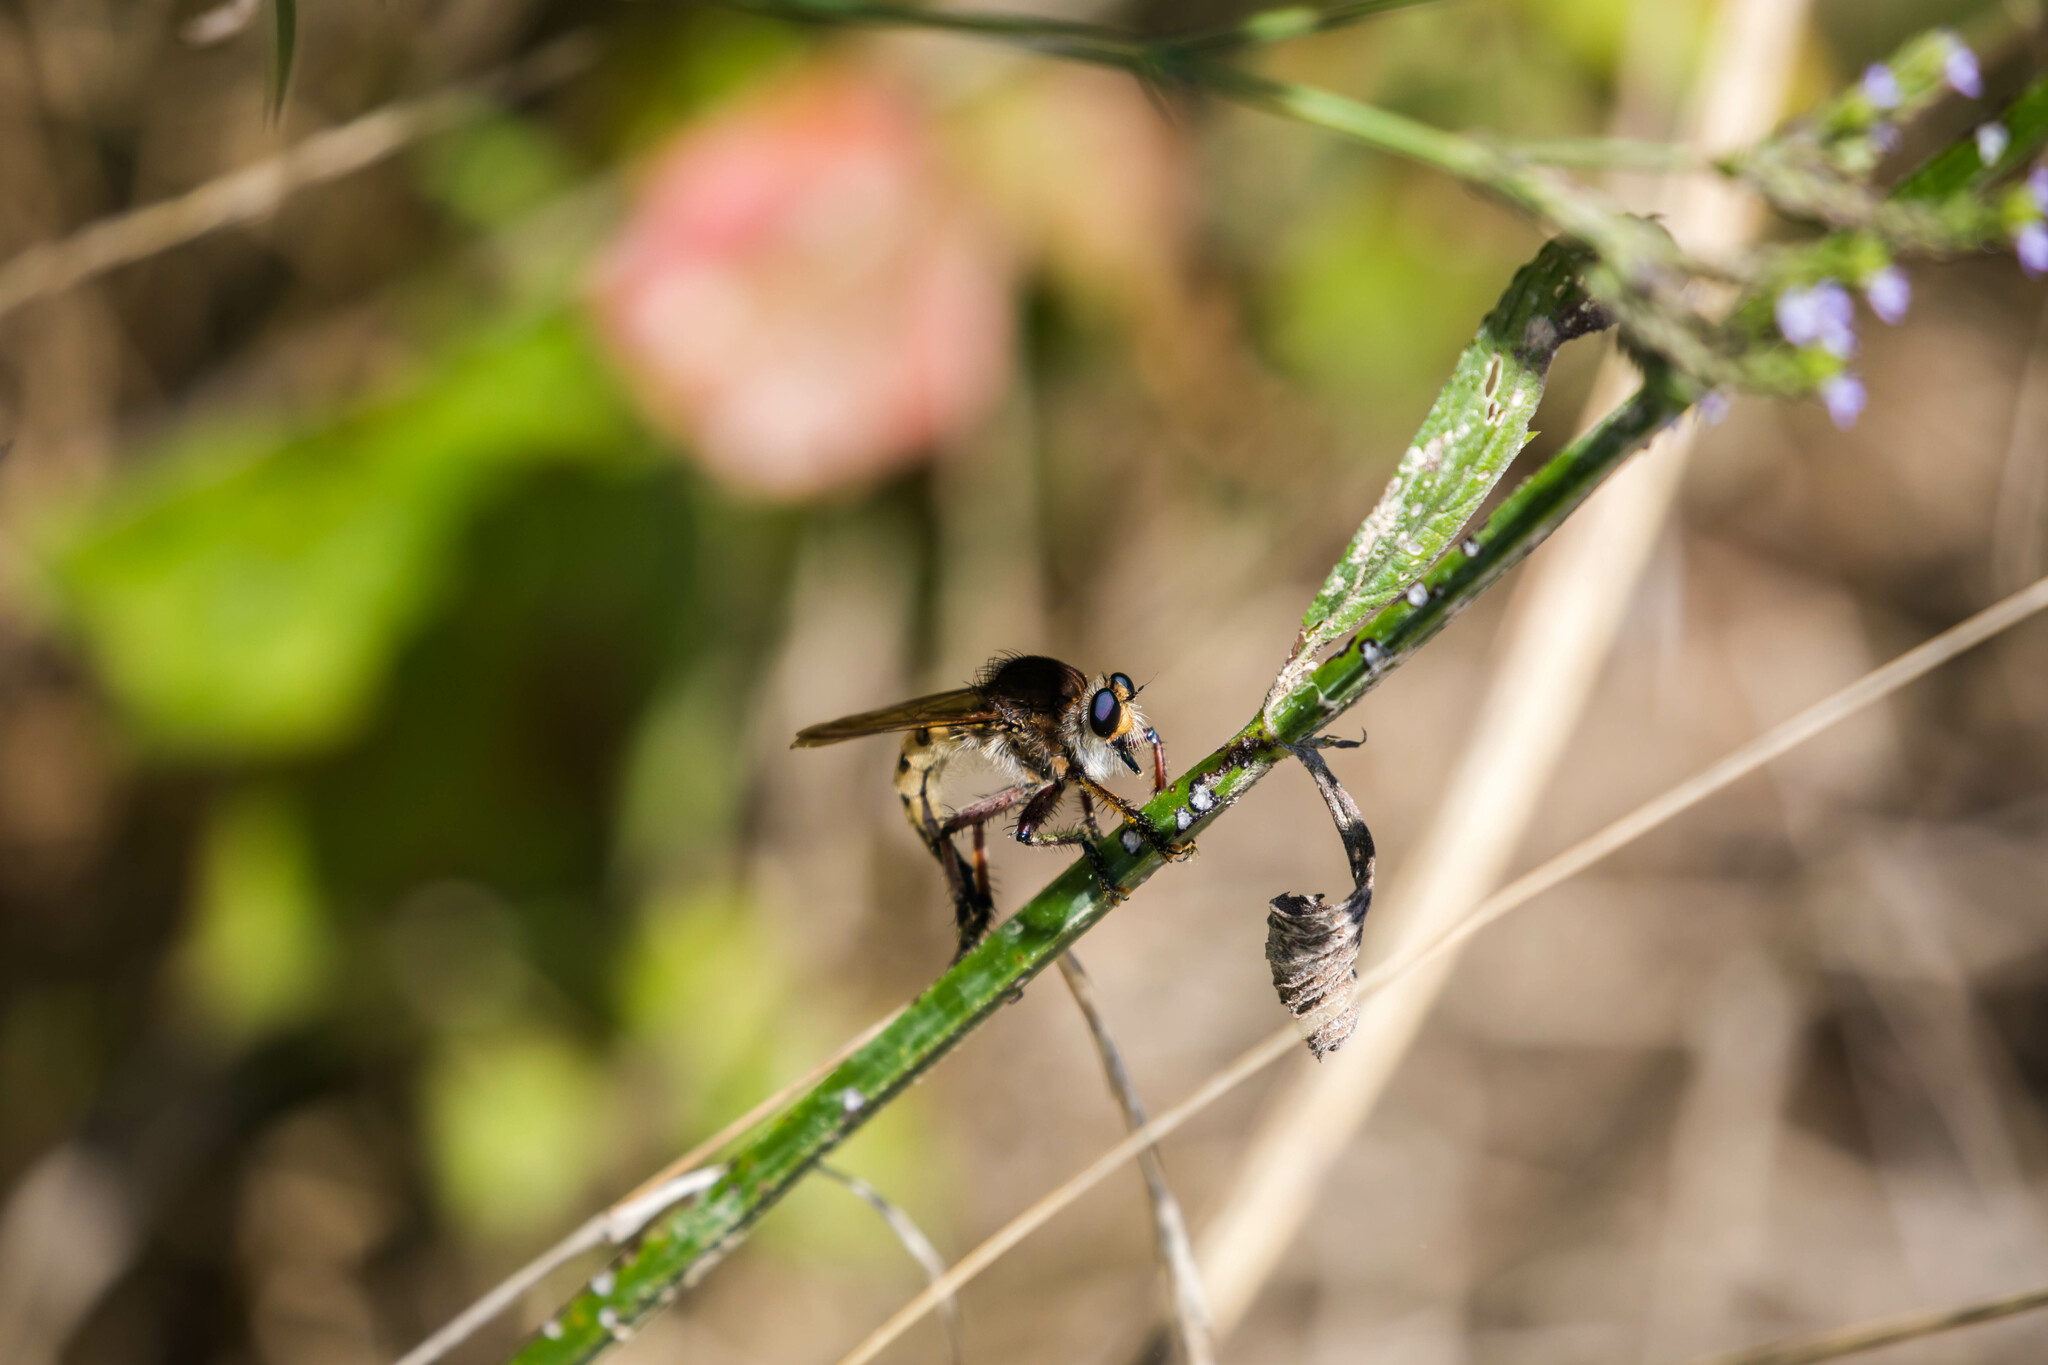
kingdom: Animalia
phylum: Arthropoda
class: Insecta
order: Diptera
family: Asilidae
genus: Promachus
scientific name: Promachus hinei
